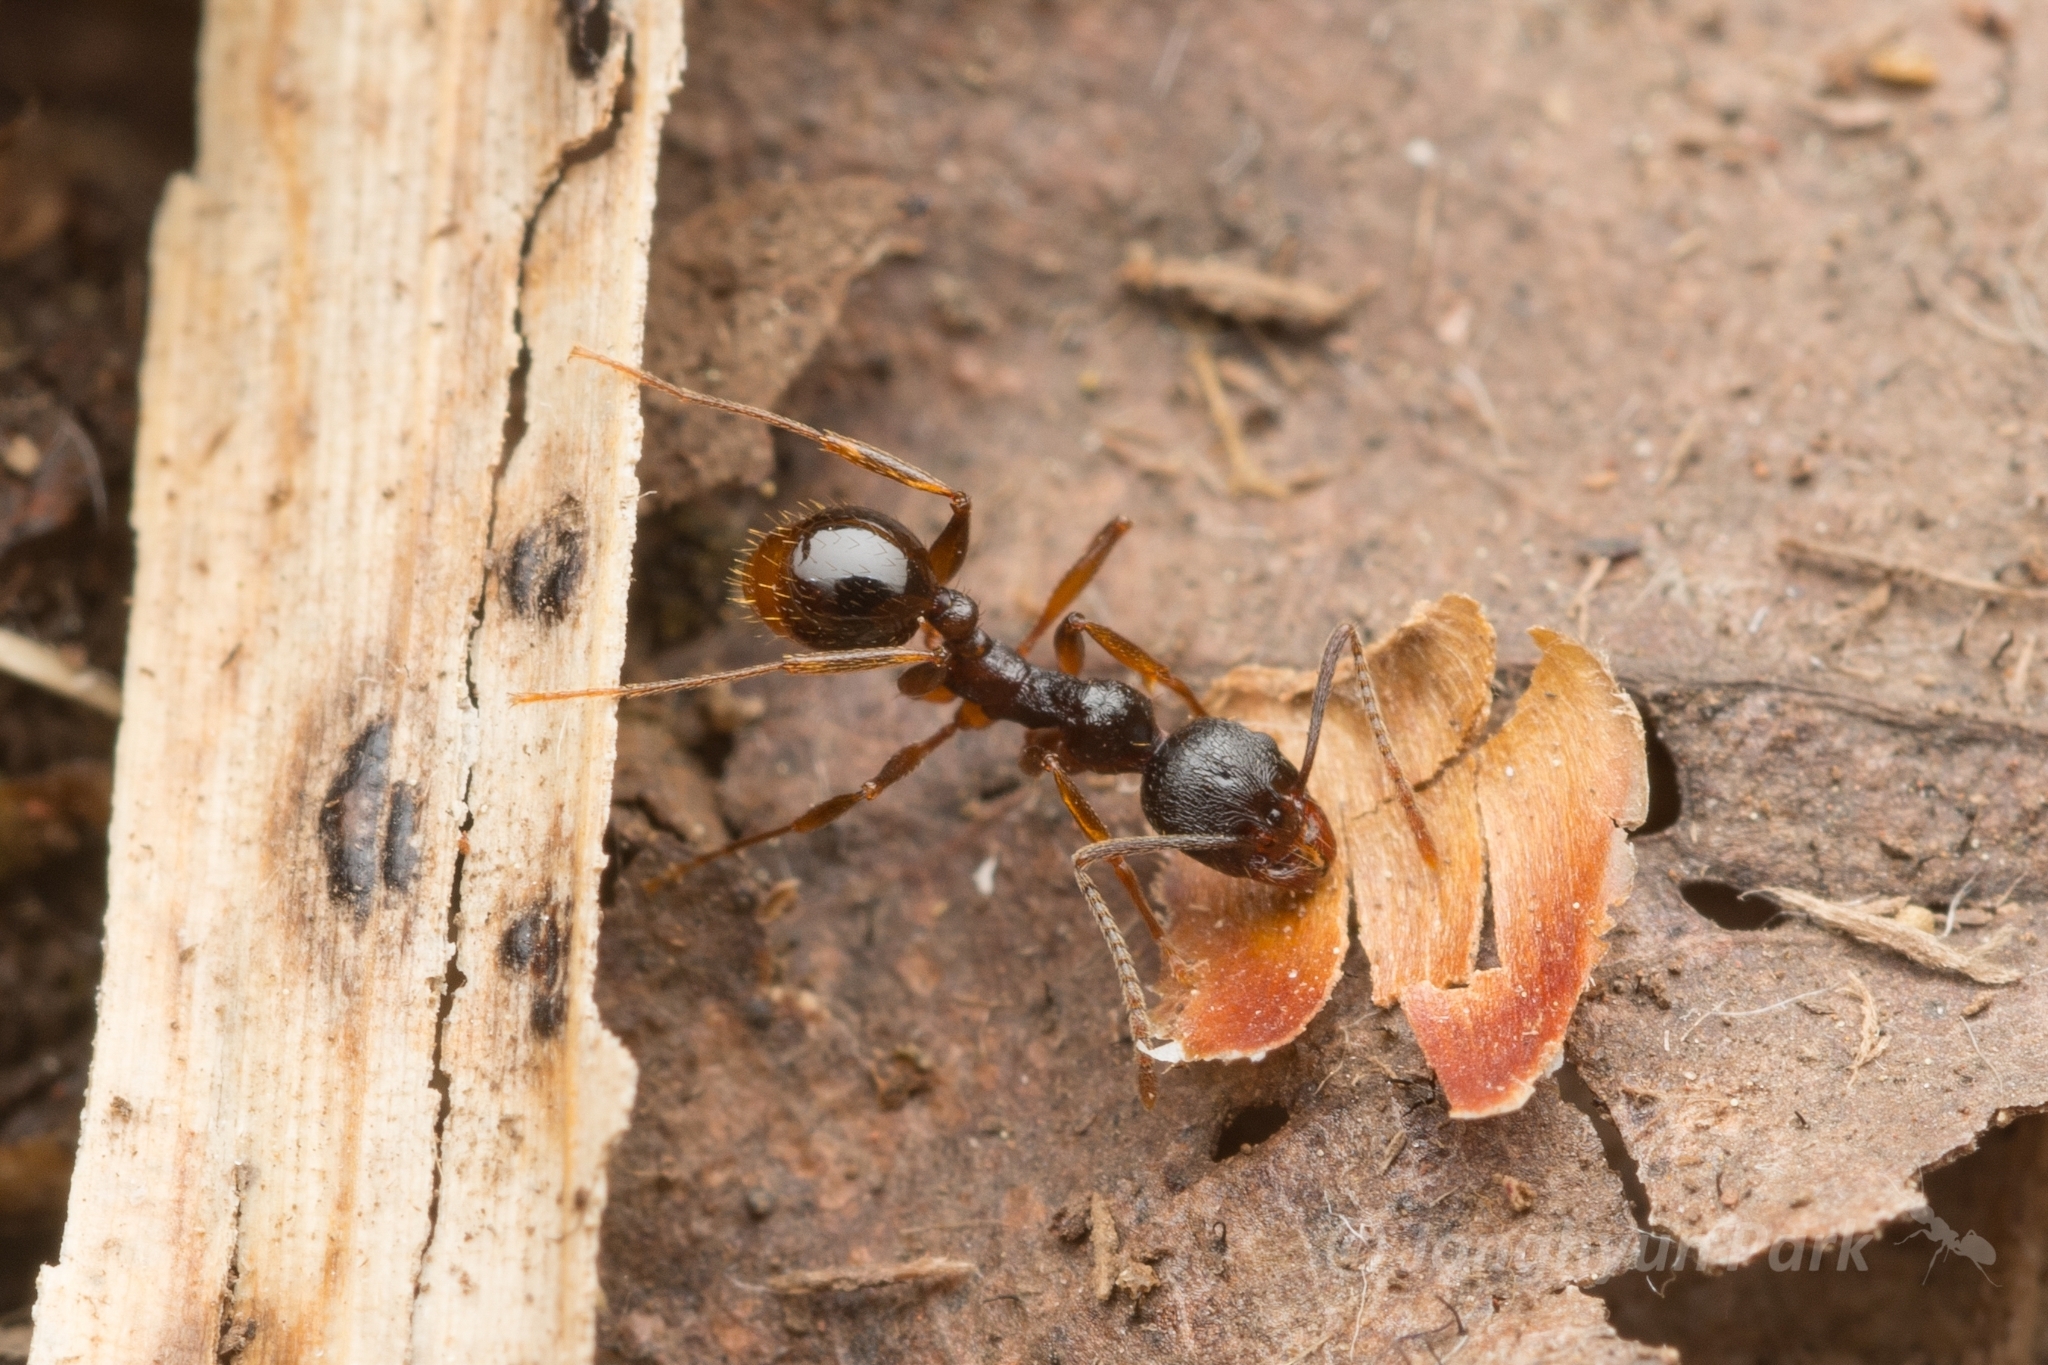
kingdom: Animalia
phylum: Arthropoda
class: Insecta
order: Hymenoptera
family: Formicidae
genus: Aphaenogaster
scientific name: Aphaenogaster japonica
